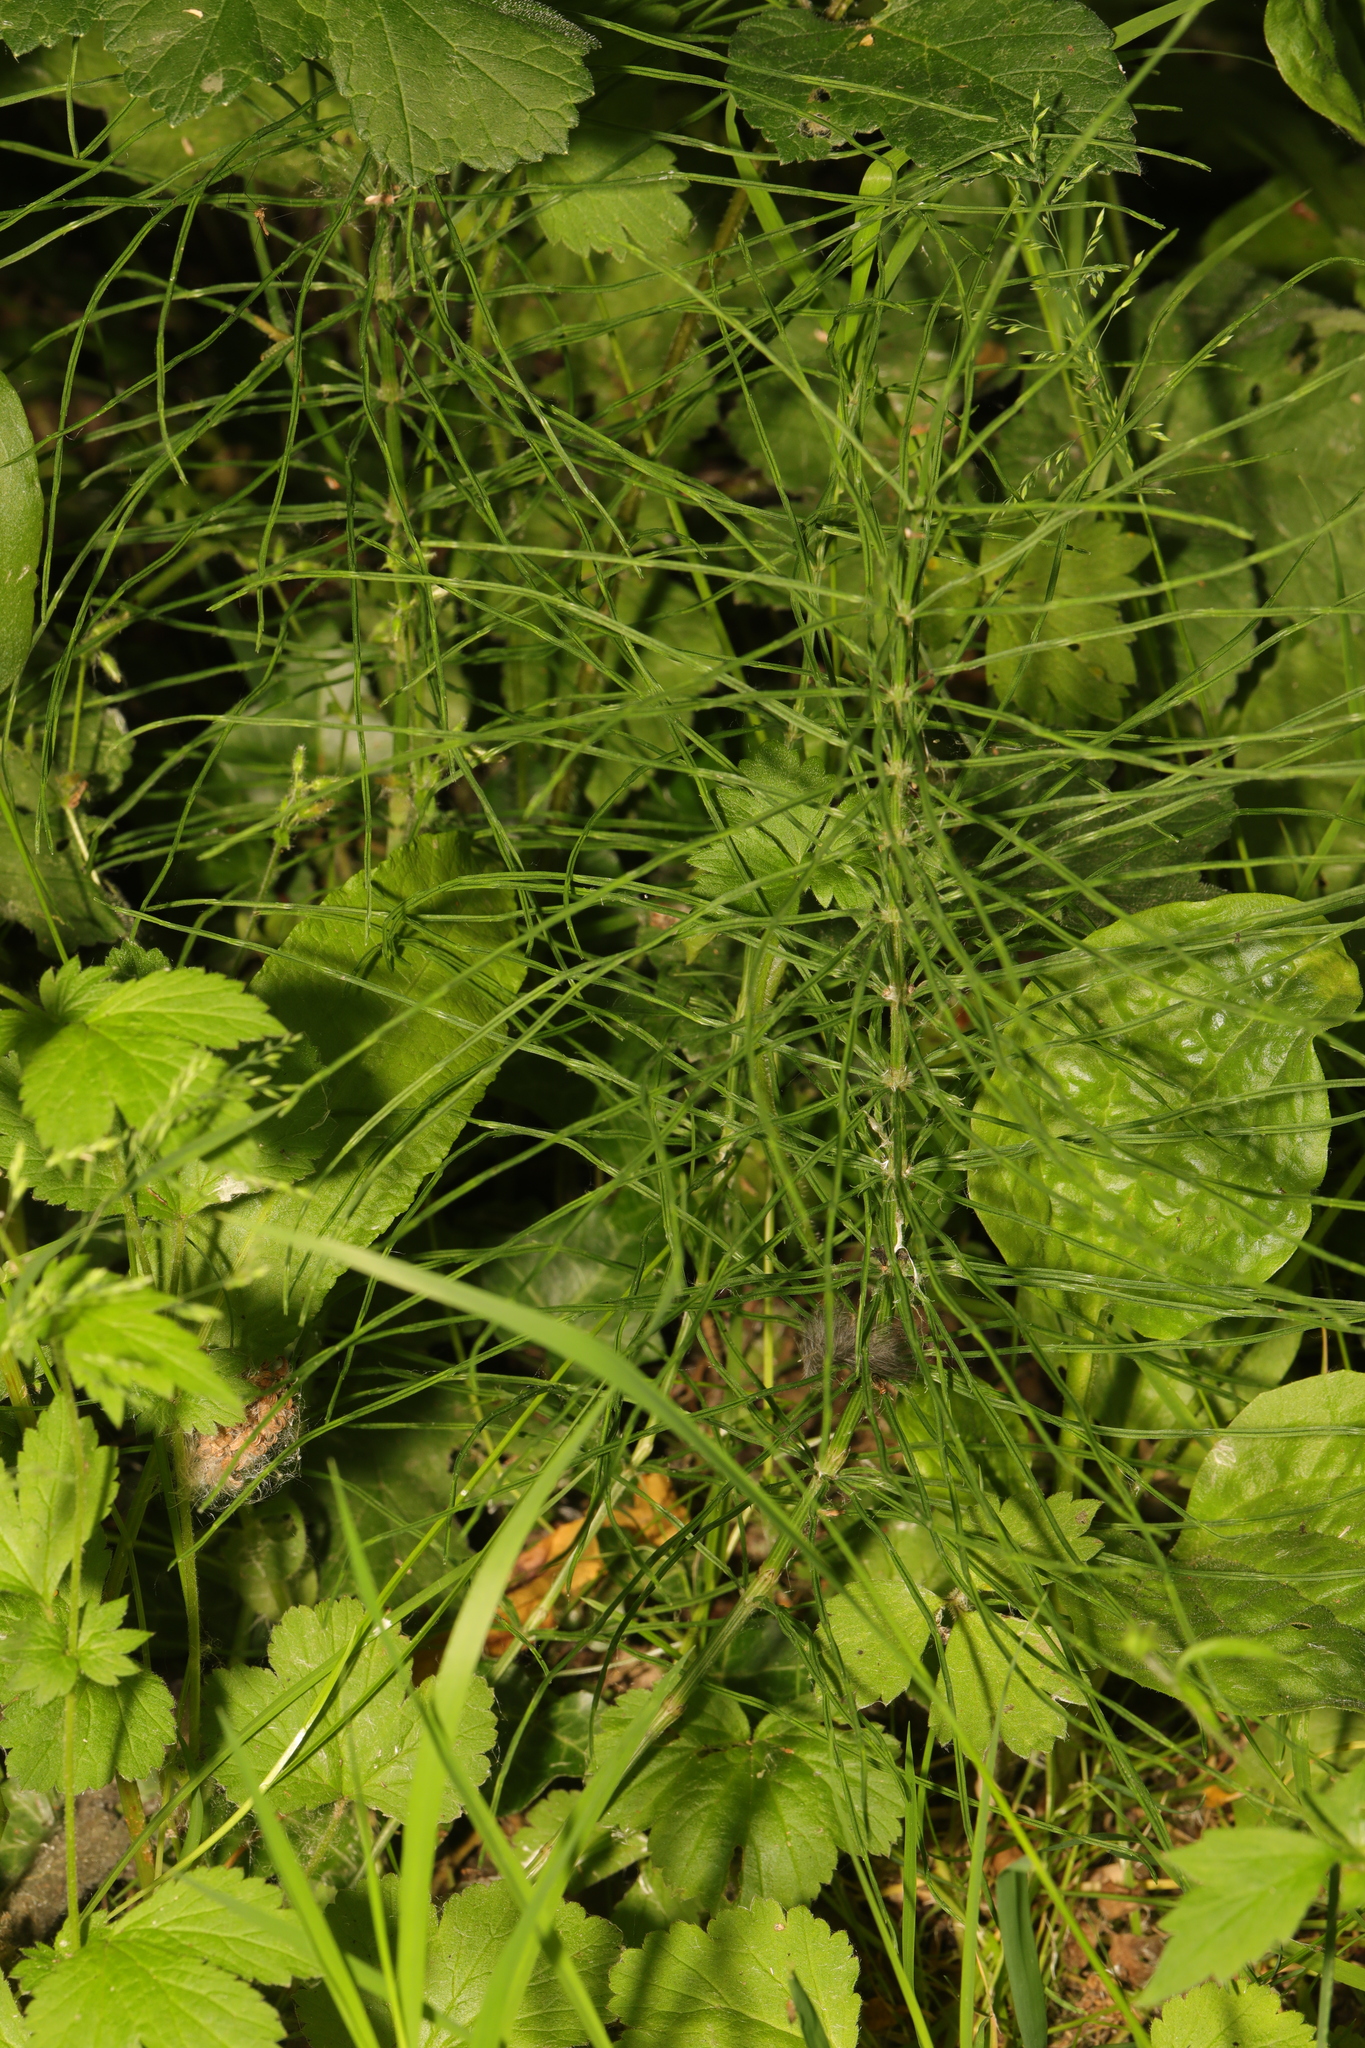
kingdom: Plantae
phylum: Tracheophyta
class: Polypodiopsida
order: Equisetales
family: Equisetaceae
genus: Equisetum
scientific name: Equisetum arvense
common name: Field horsetail
